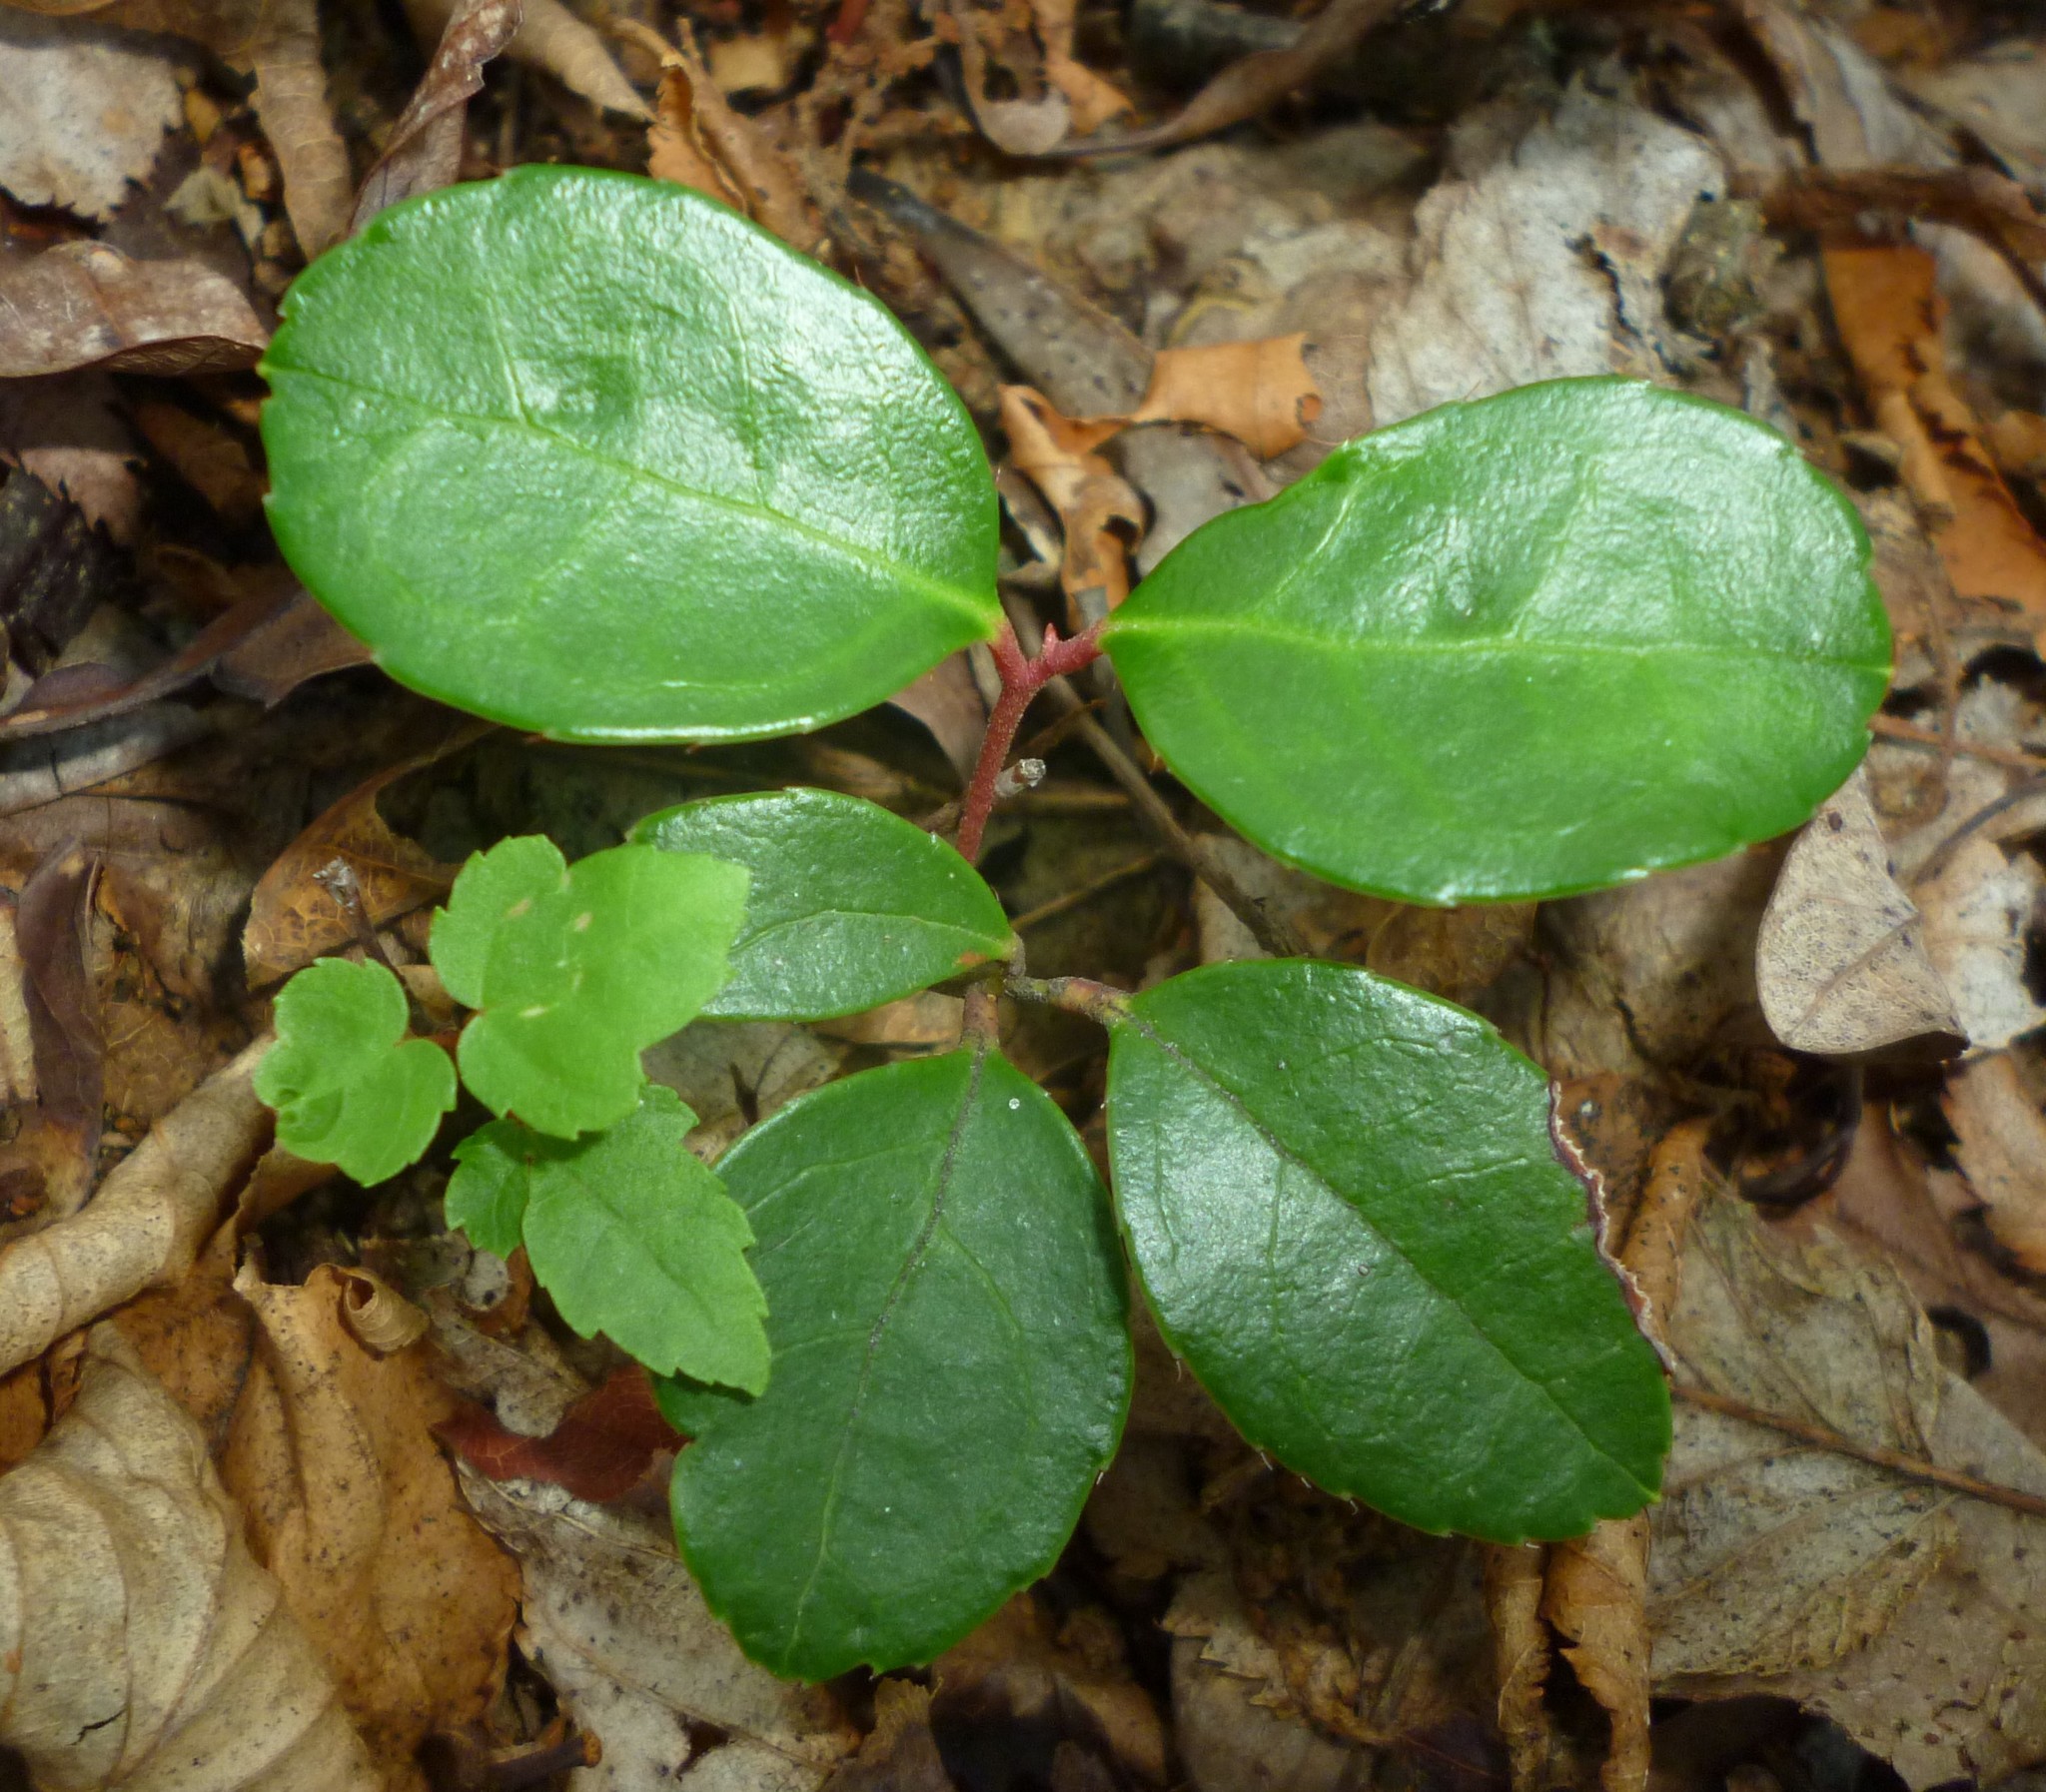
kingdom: Plantae
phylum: Tracheophyta
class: Magnoliopsida
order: Ericales
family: Ericaceae
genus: Gaultheria
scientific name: Gaultheria procumbens
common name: Checkerberry
